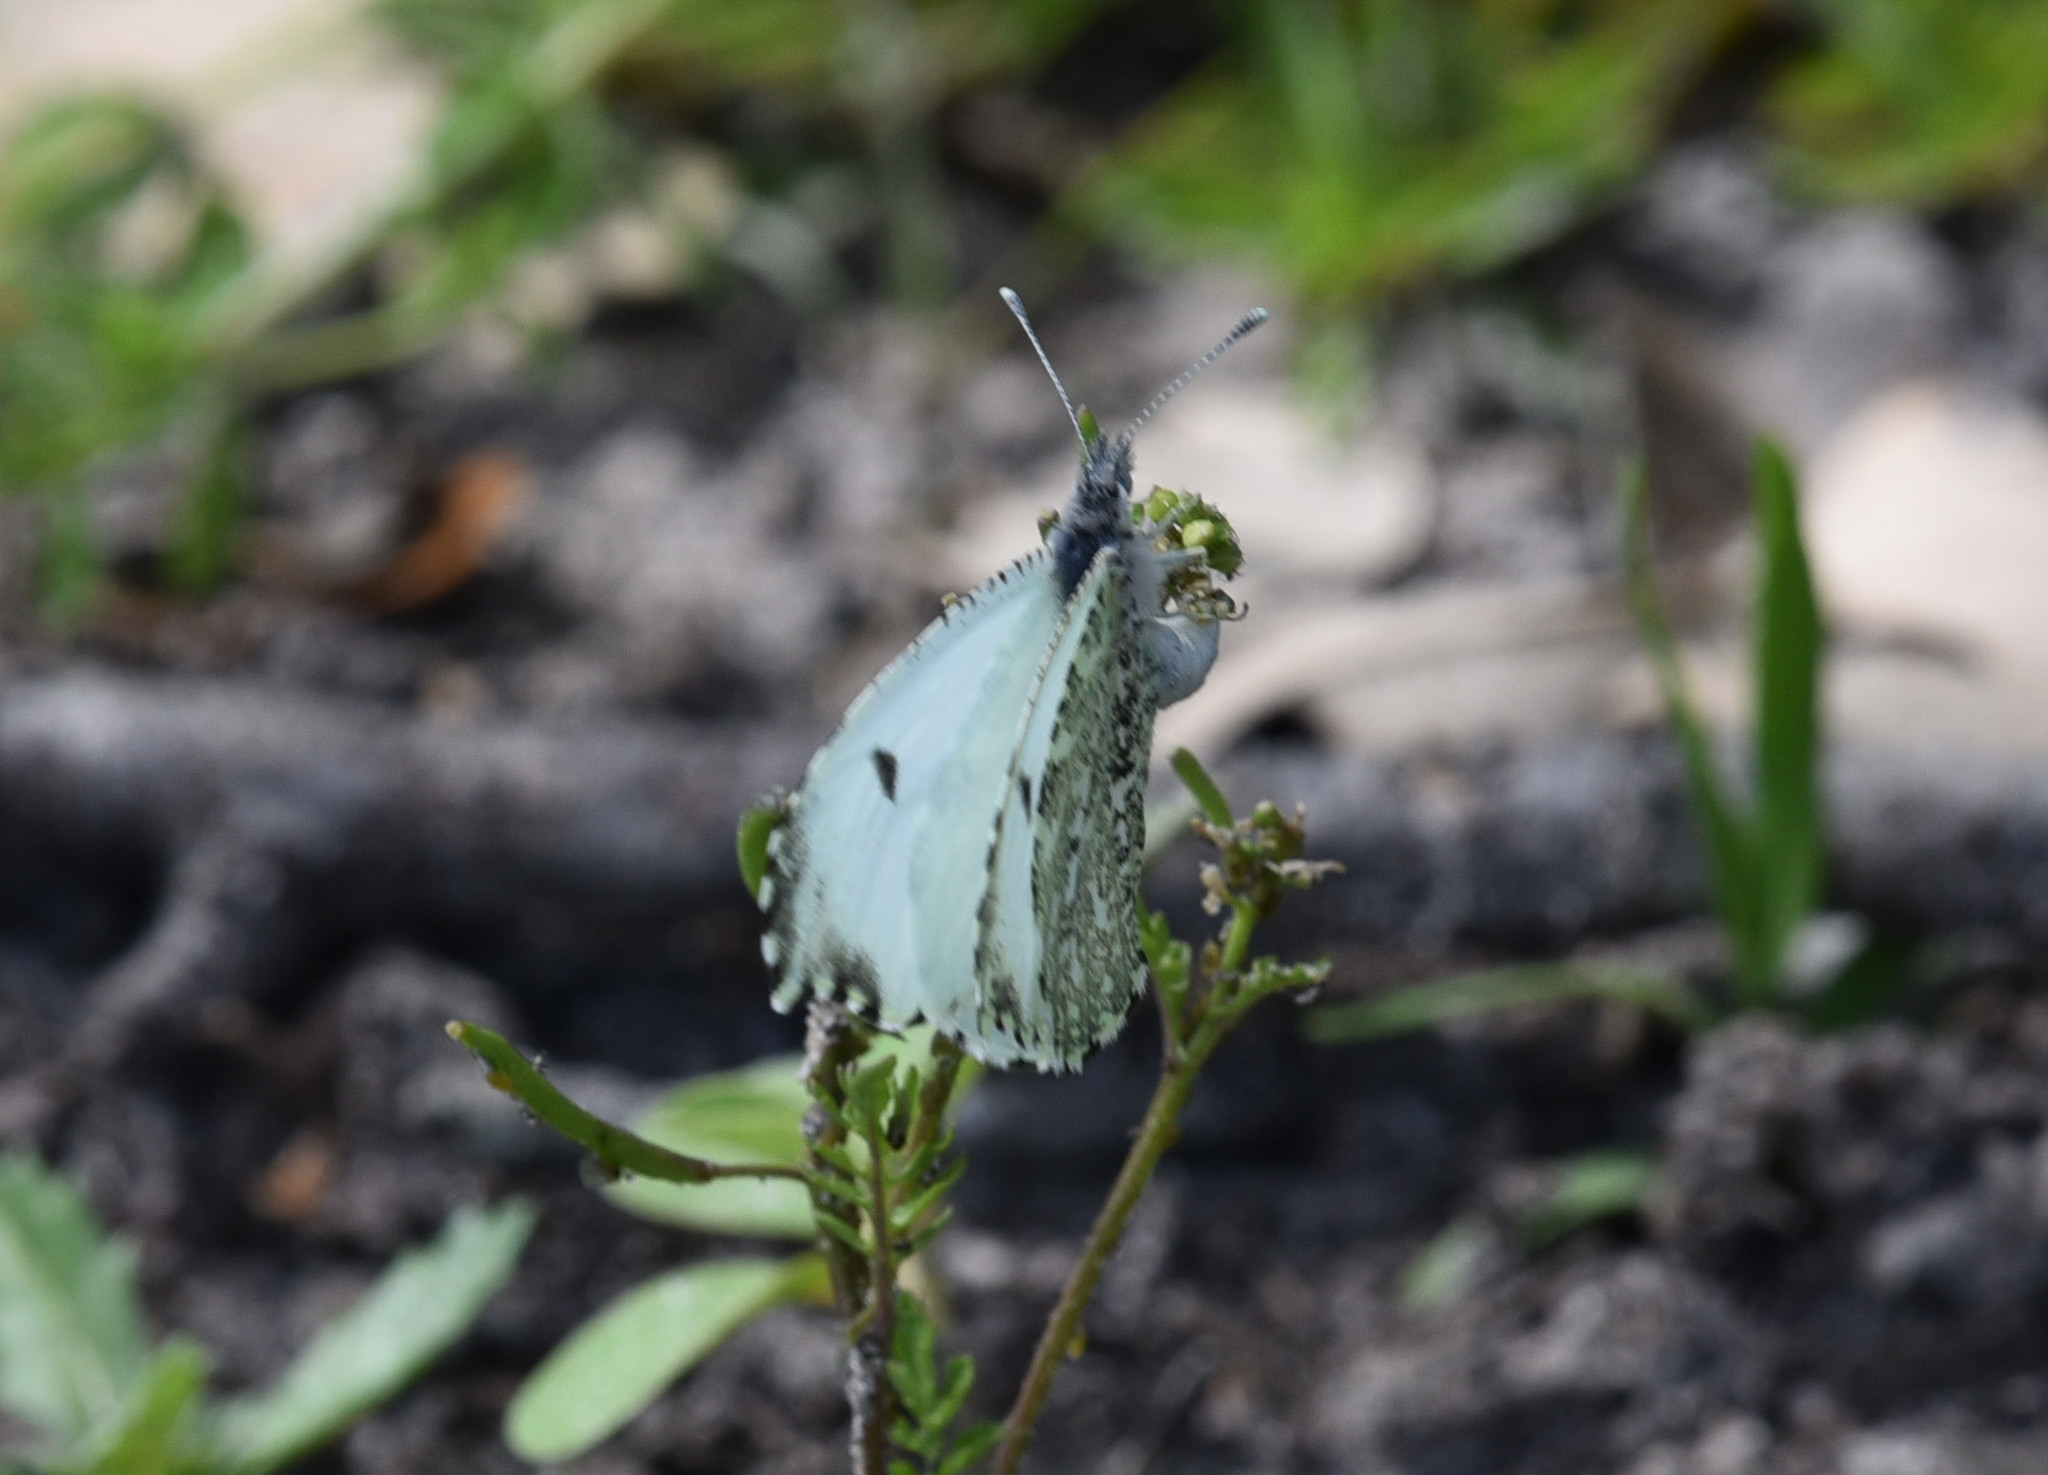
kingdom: Animalia
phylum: Arthropoda
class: Insecta
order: Lepidoptera
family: Pieridae
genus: Anthocharis
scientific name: Anthocharis midea
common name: Falcate orangetip
